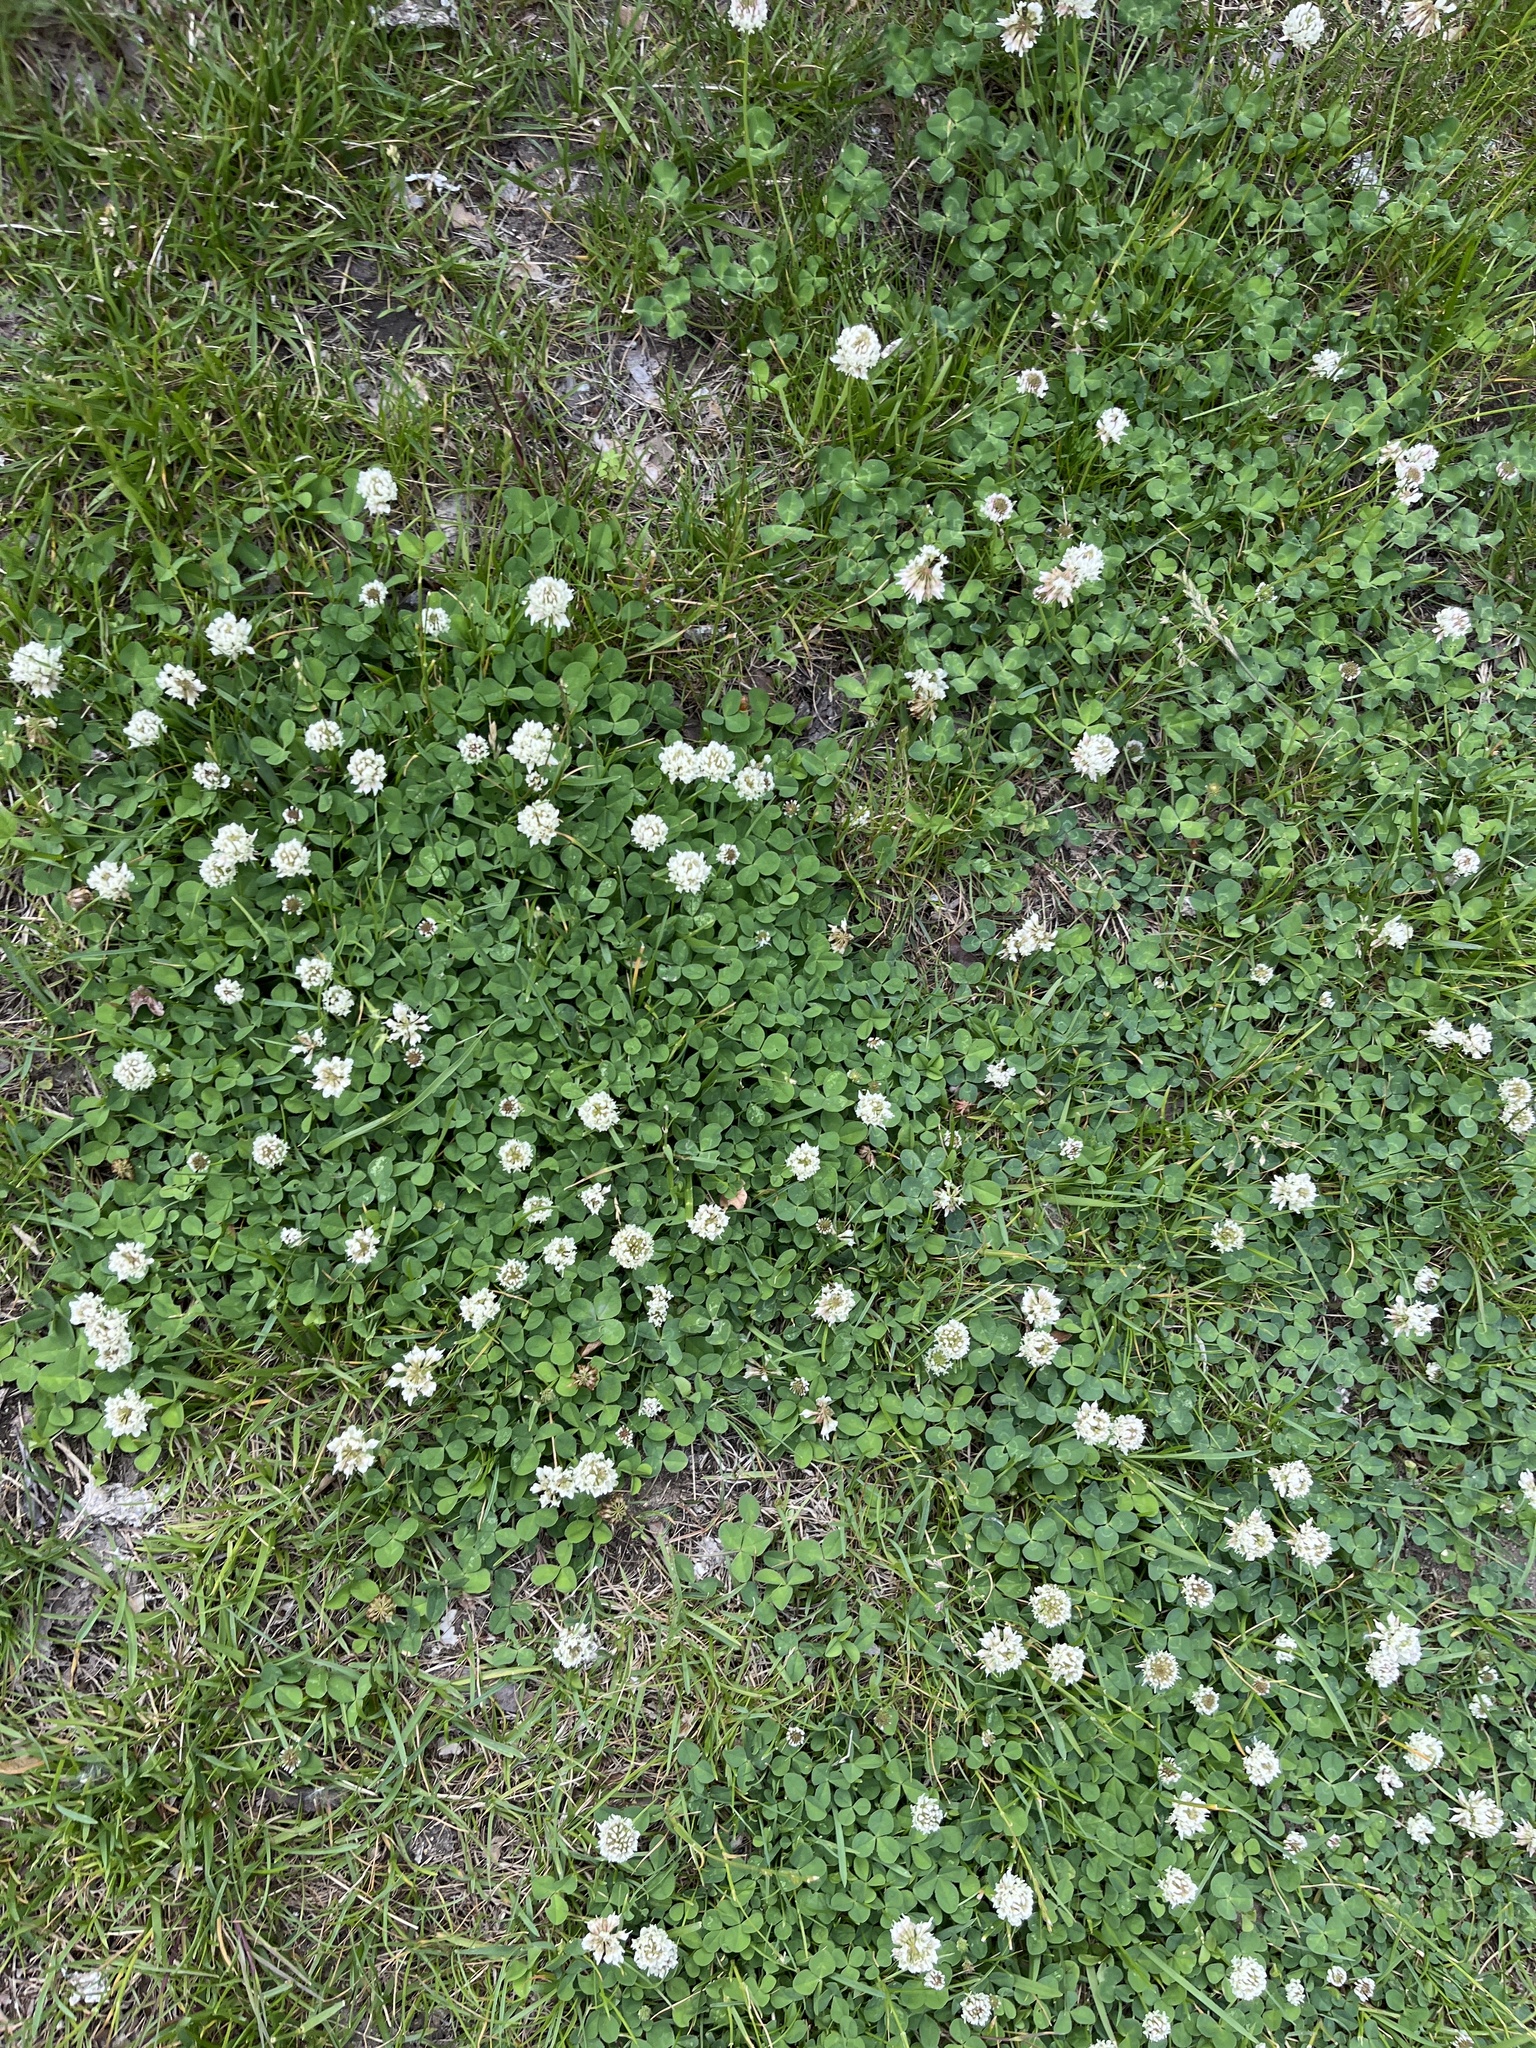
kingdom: Plantae
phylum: Tracheophyta
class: Magnoliopsida
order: Fabales
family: Fabaceae
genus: Trifolium
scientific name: Trifolium repens
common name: White clover
